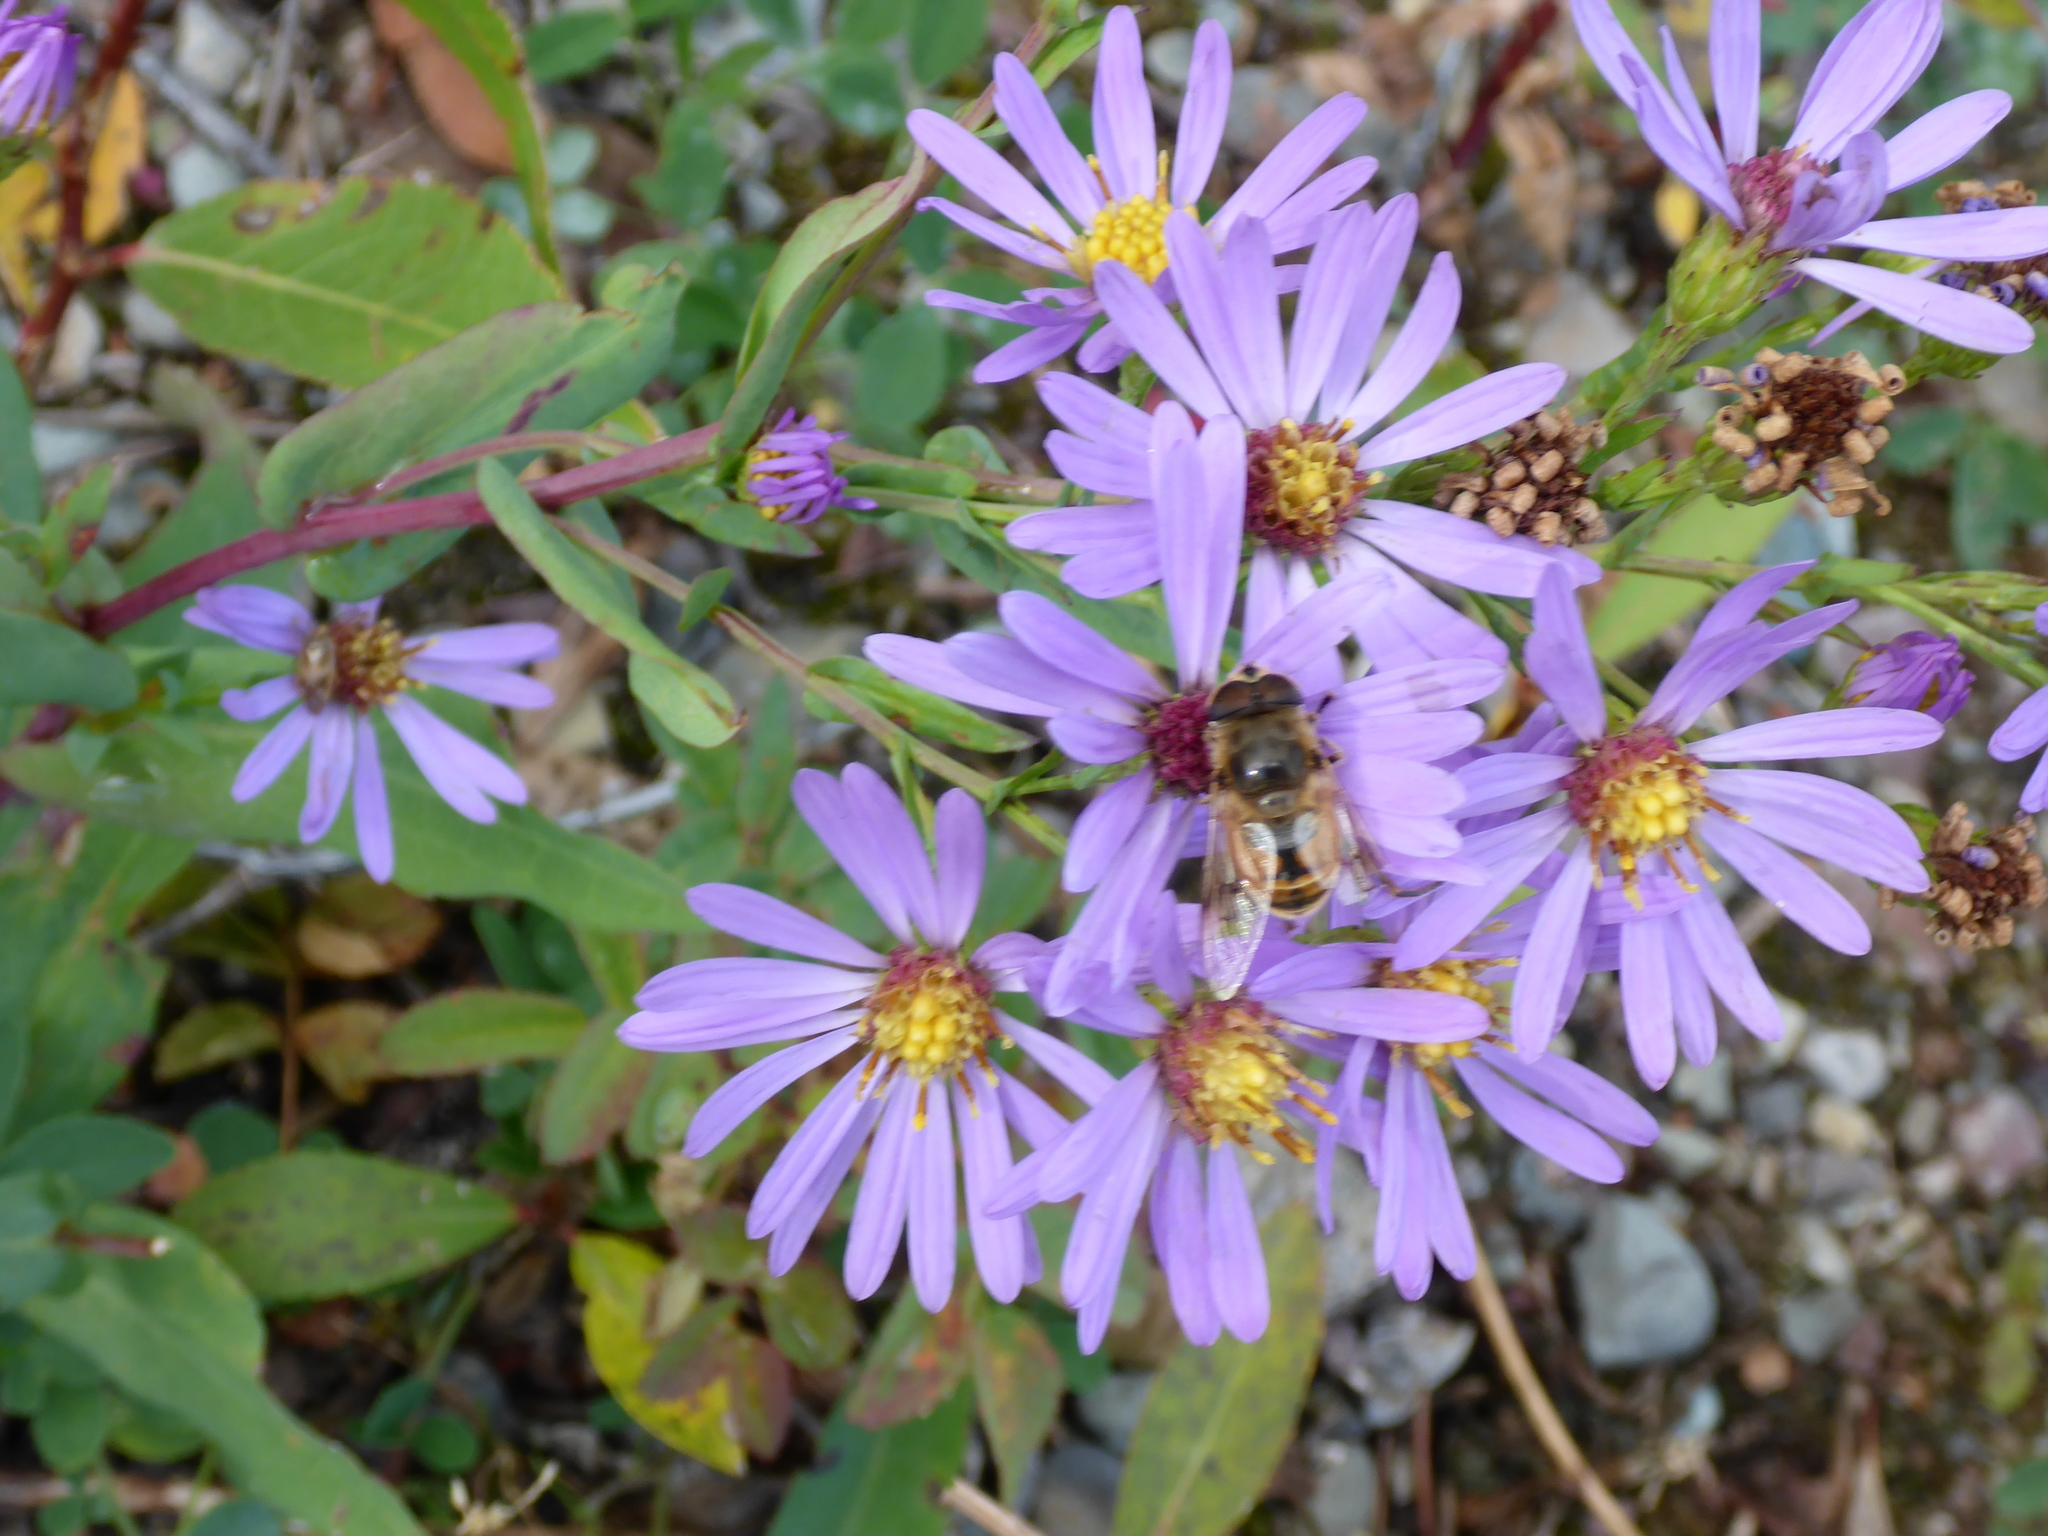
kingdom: Plantae
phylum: Tracheophyta
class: Magnoliopsida
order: Asterales
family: Asteraceae
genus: Symphyotrichum
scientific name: Symphyotrichum laeve
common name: Glaucous aster
